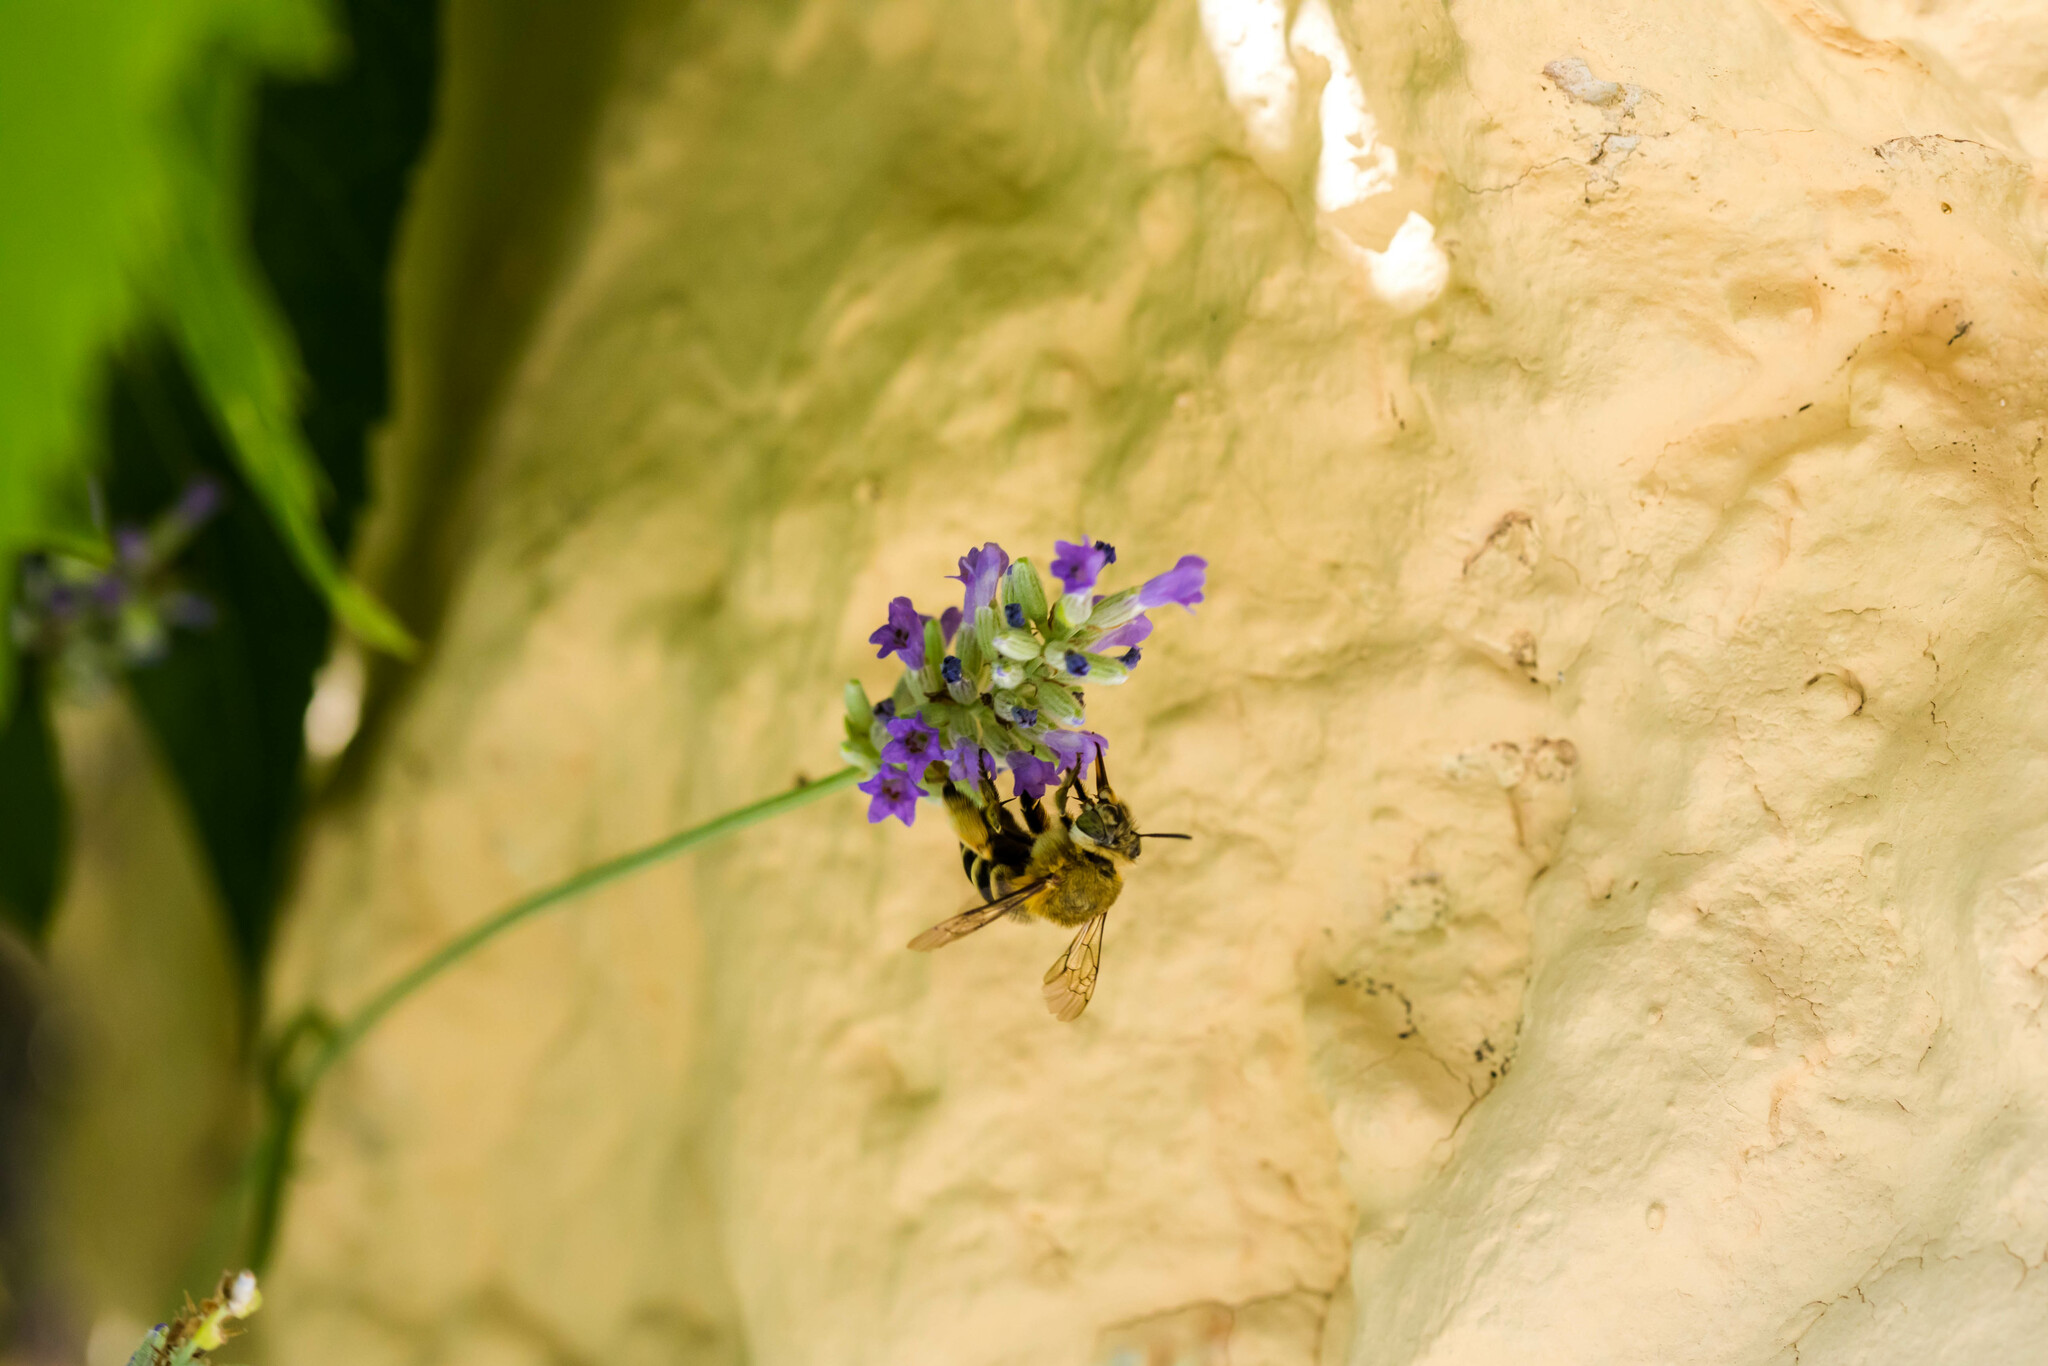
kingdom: Animalia
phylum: Arthropoda
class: Insecta
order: Hymenoptera
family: Apidae
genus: Amegilla
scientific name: Amegilla garrula
